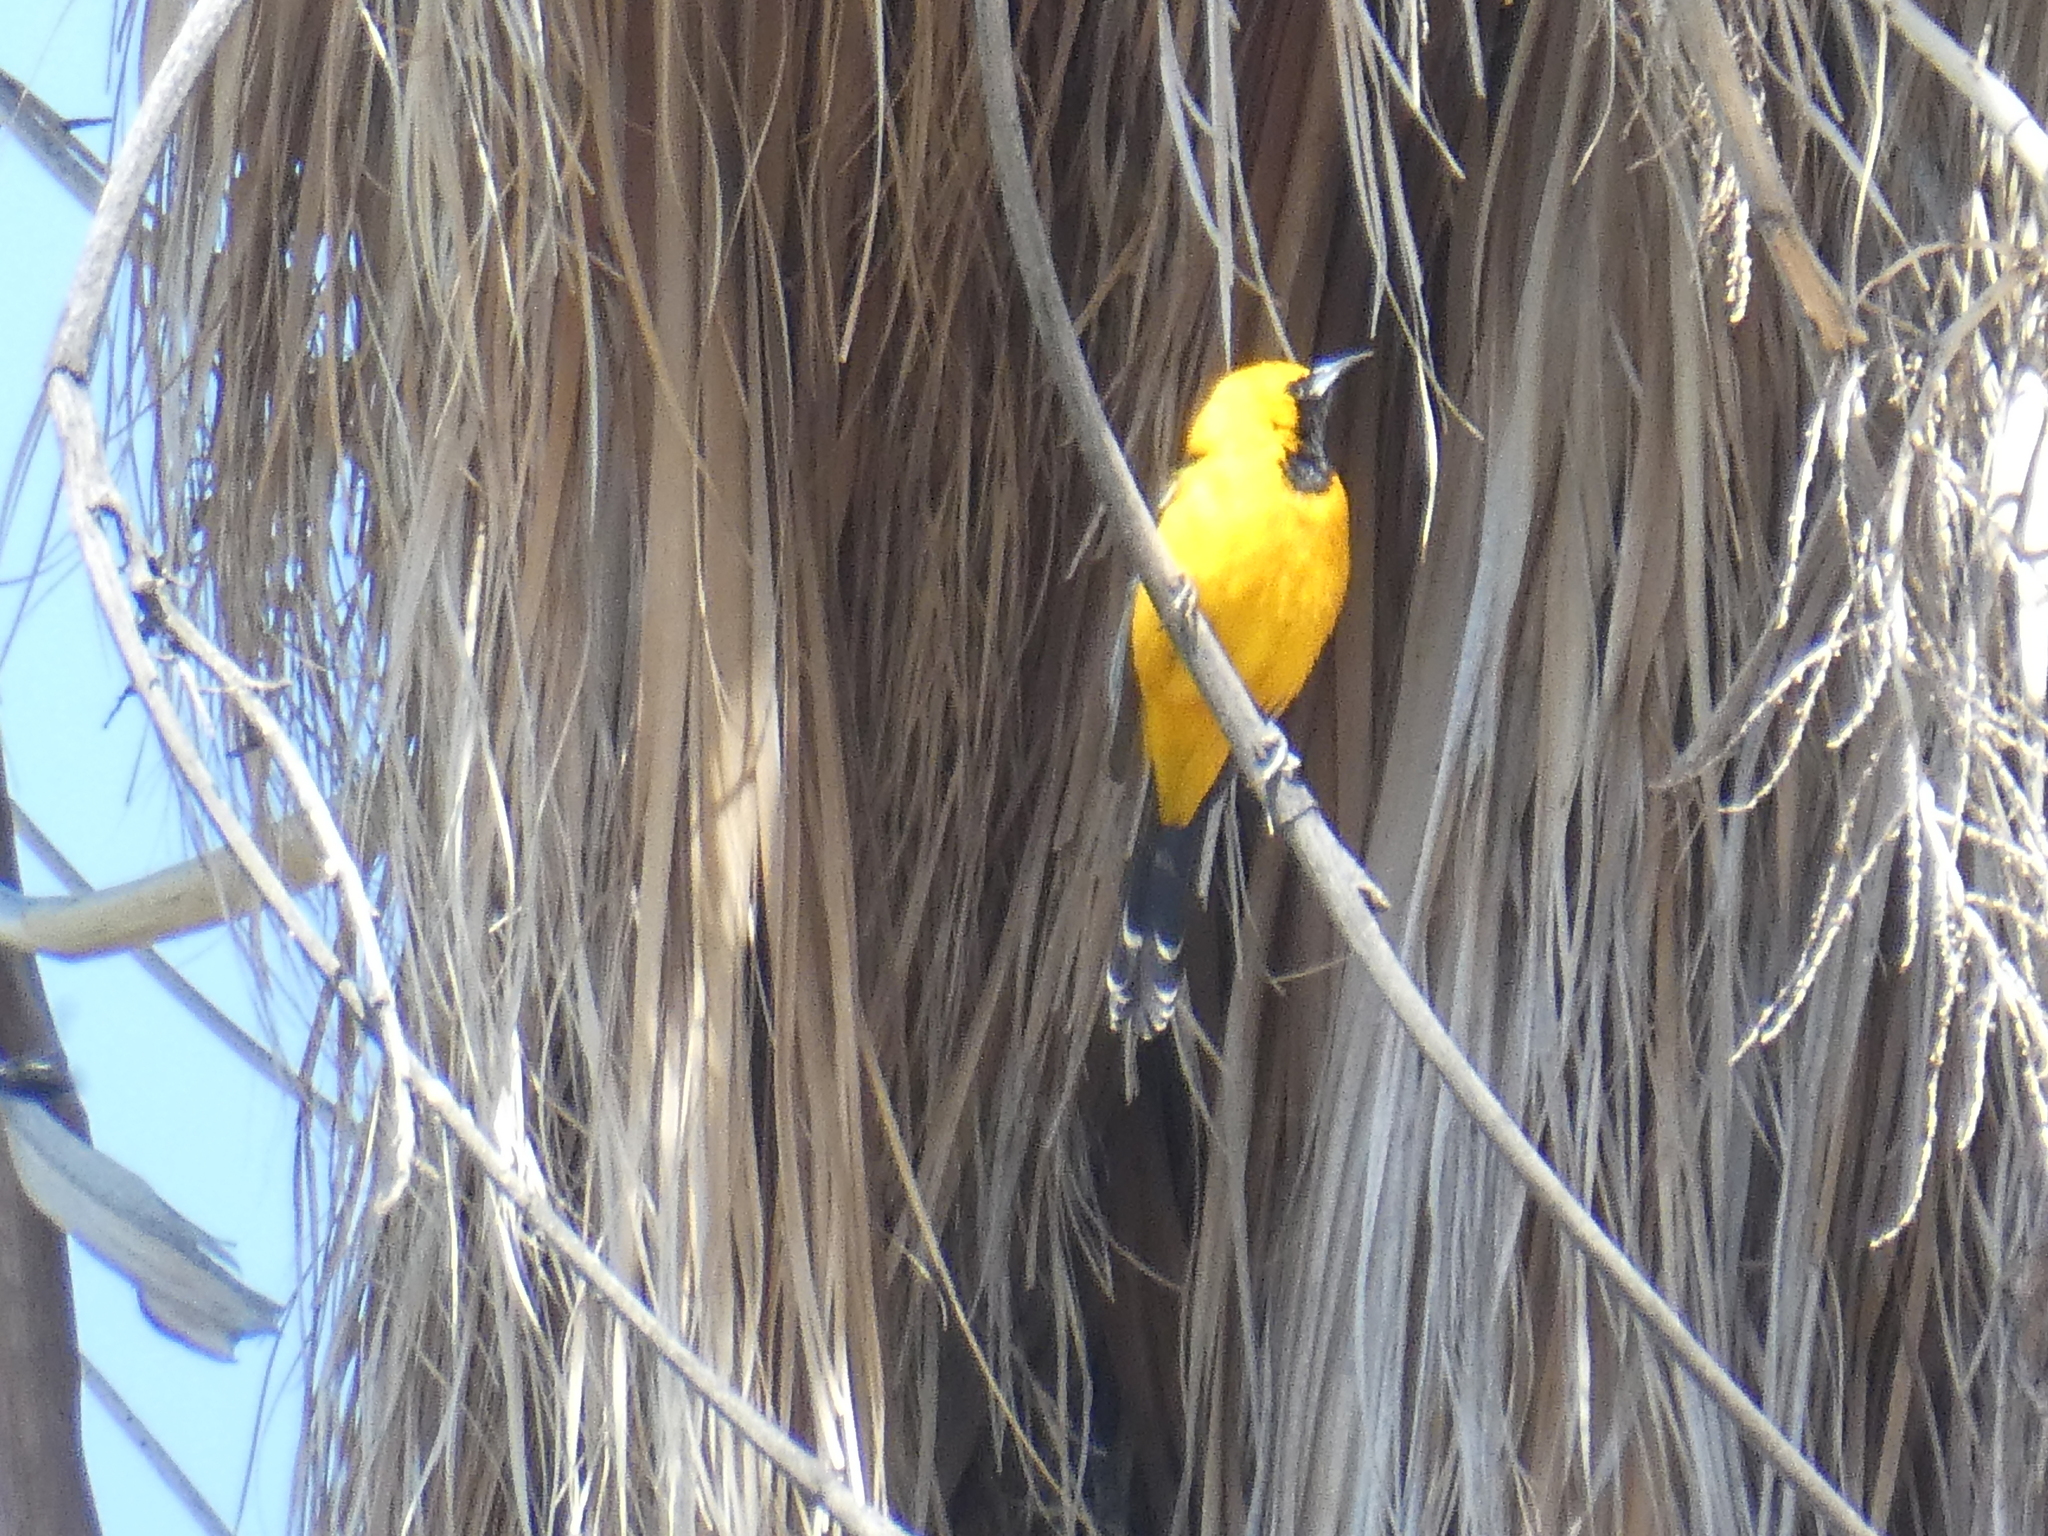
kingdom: Animalia
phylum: Chordata
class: Aves
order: Passeriformes
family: Icteridae
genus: Icterus
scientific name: Icterus cucullatus
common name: Hooded oriole
